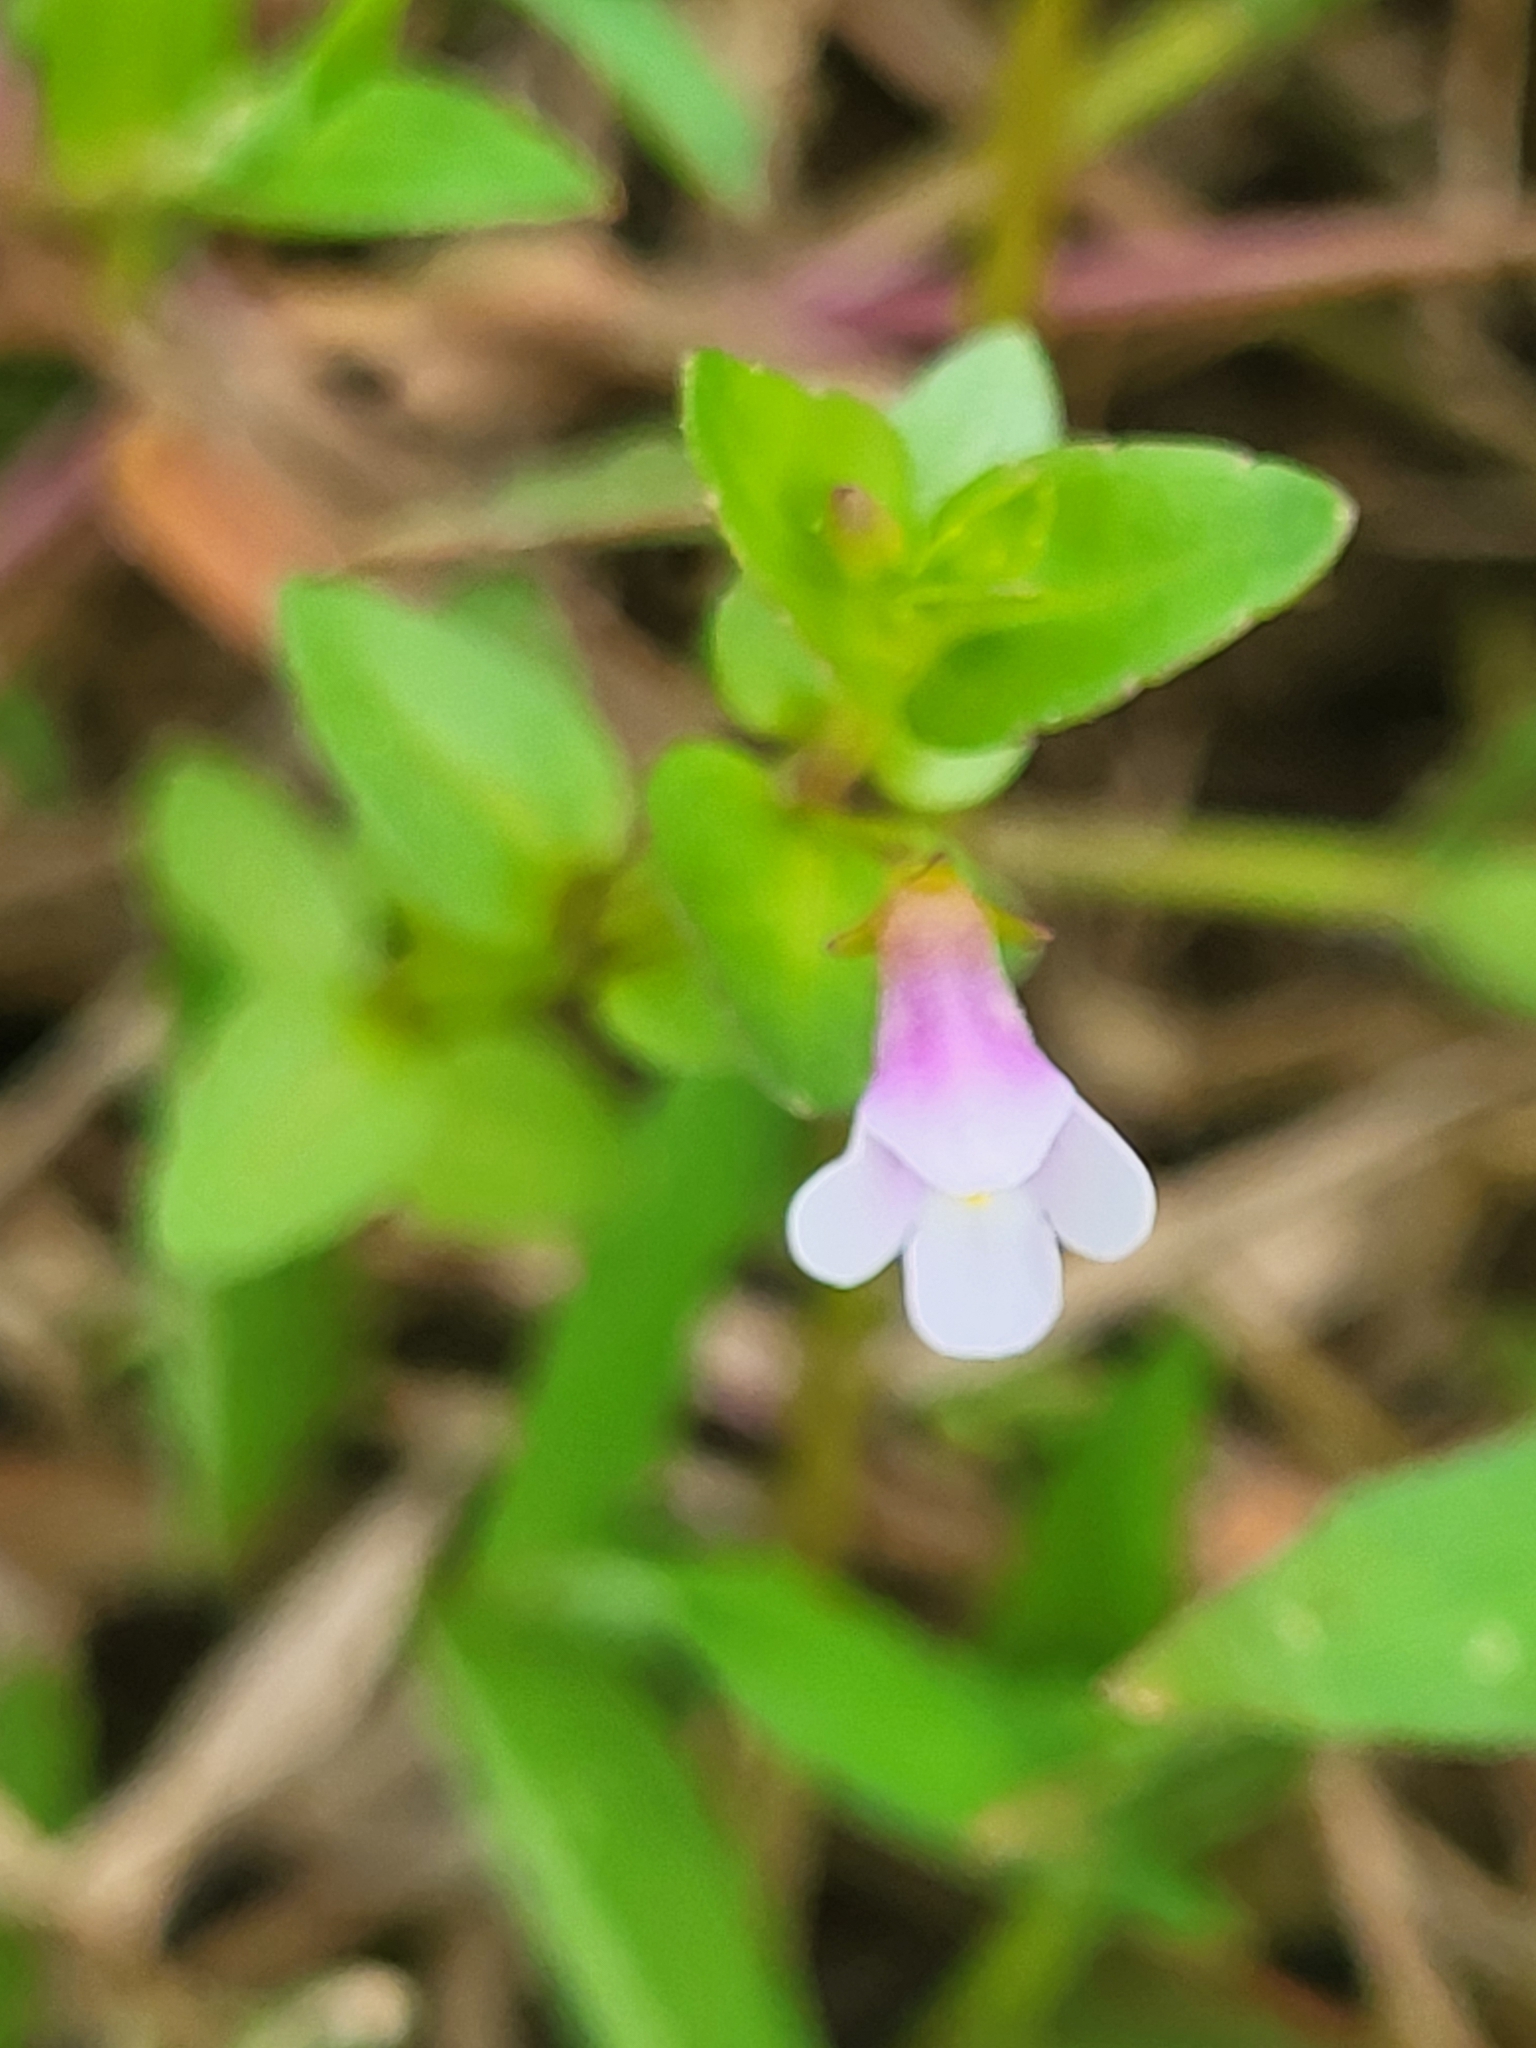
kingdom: Plantae
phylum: Tracheophyta
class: Magnoliopsida
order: Lamiales
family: Linderniaceae
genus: Torenia
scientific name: Torenia anagallis
